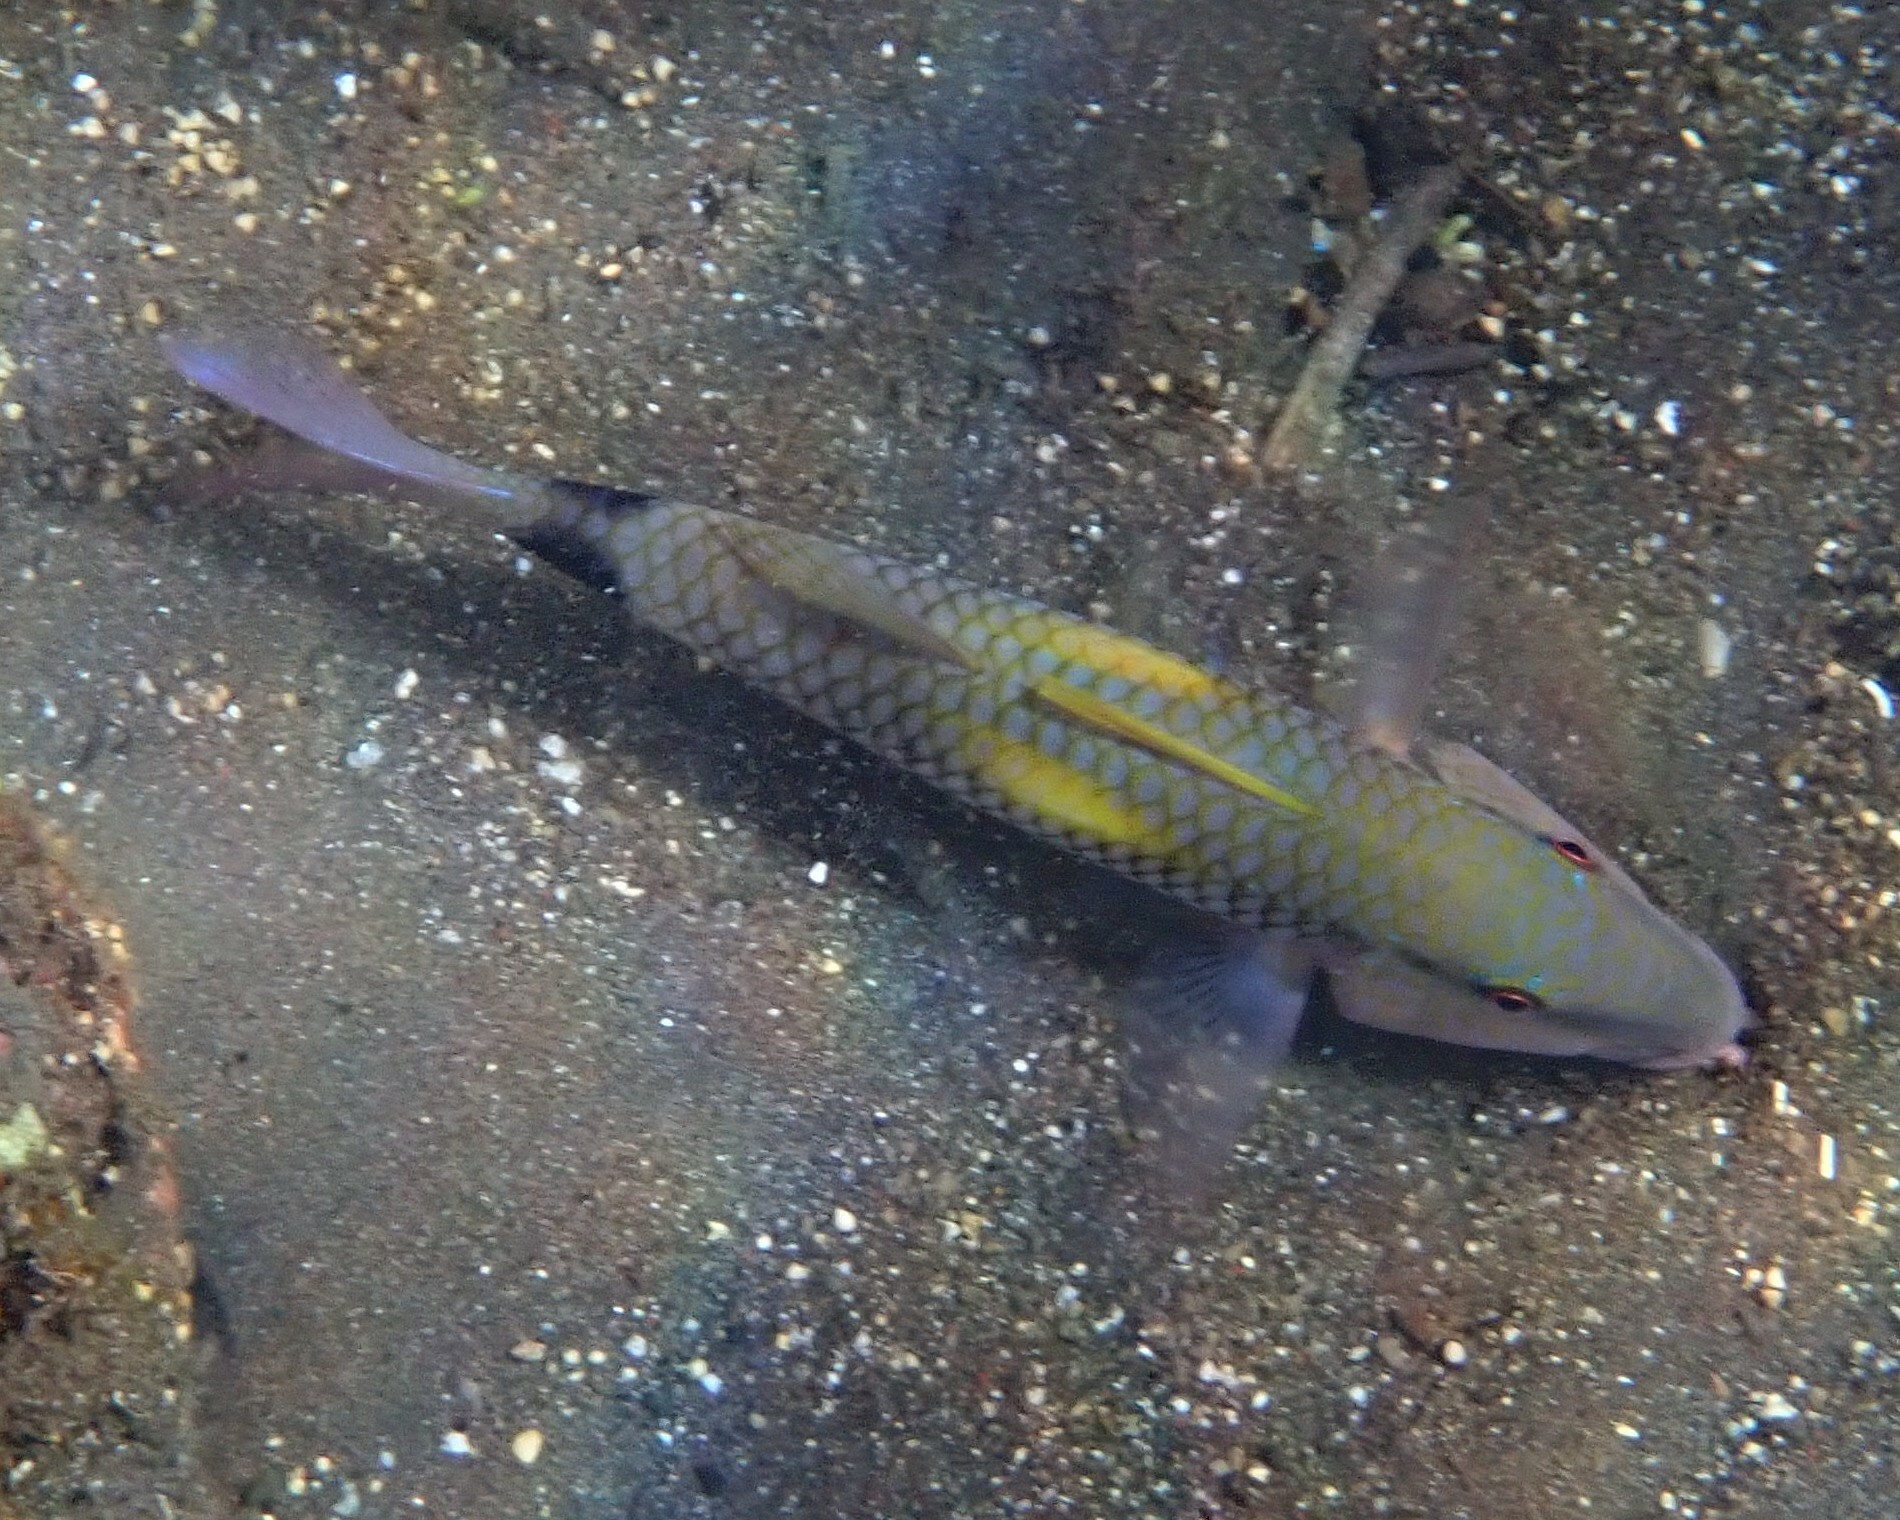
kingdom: Animalia
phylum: Chordata
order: Perciformes
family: Mullidae
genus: Parupeneus
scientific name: Parupeneus indicus
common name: Indian goatfish
